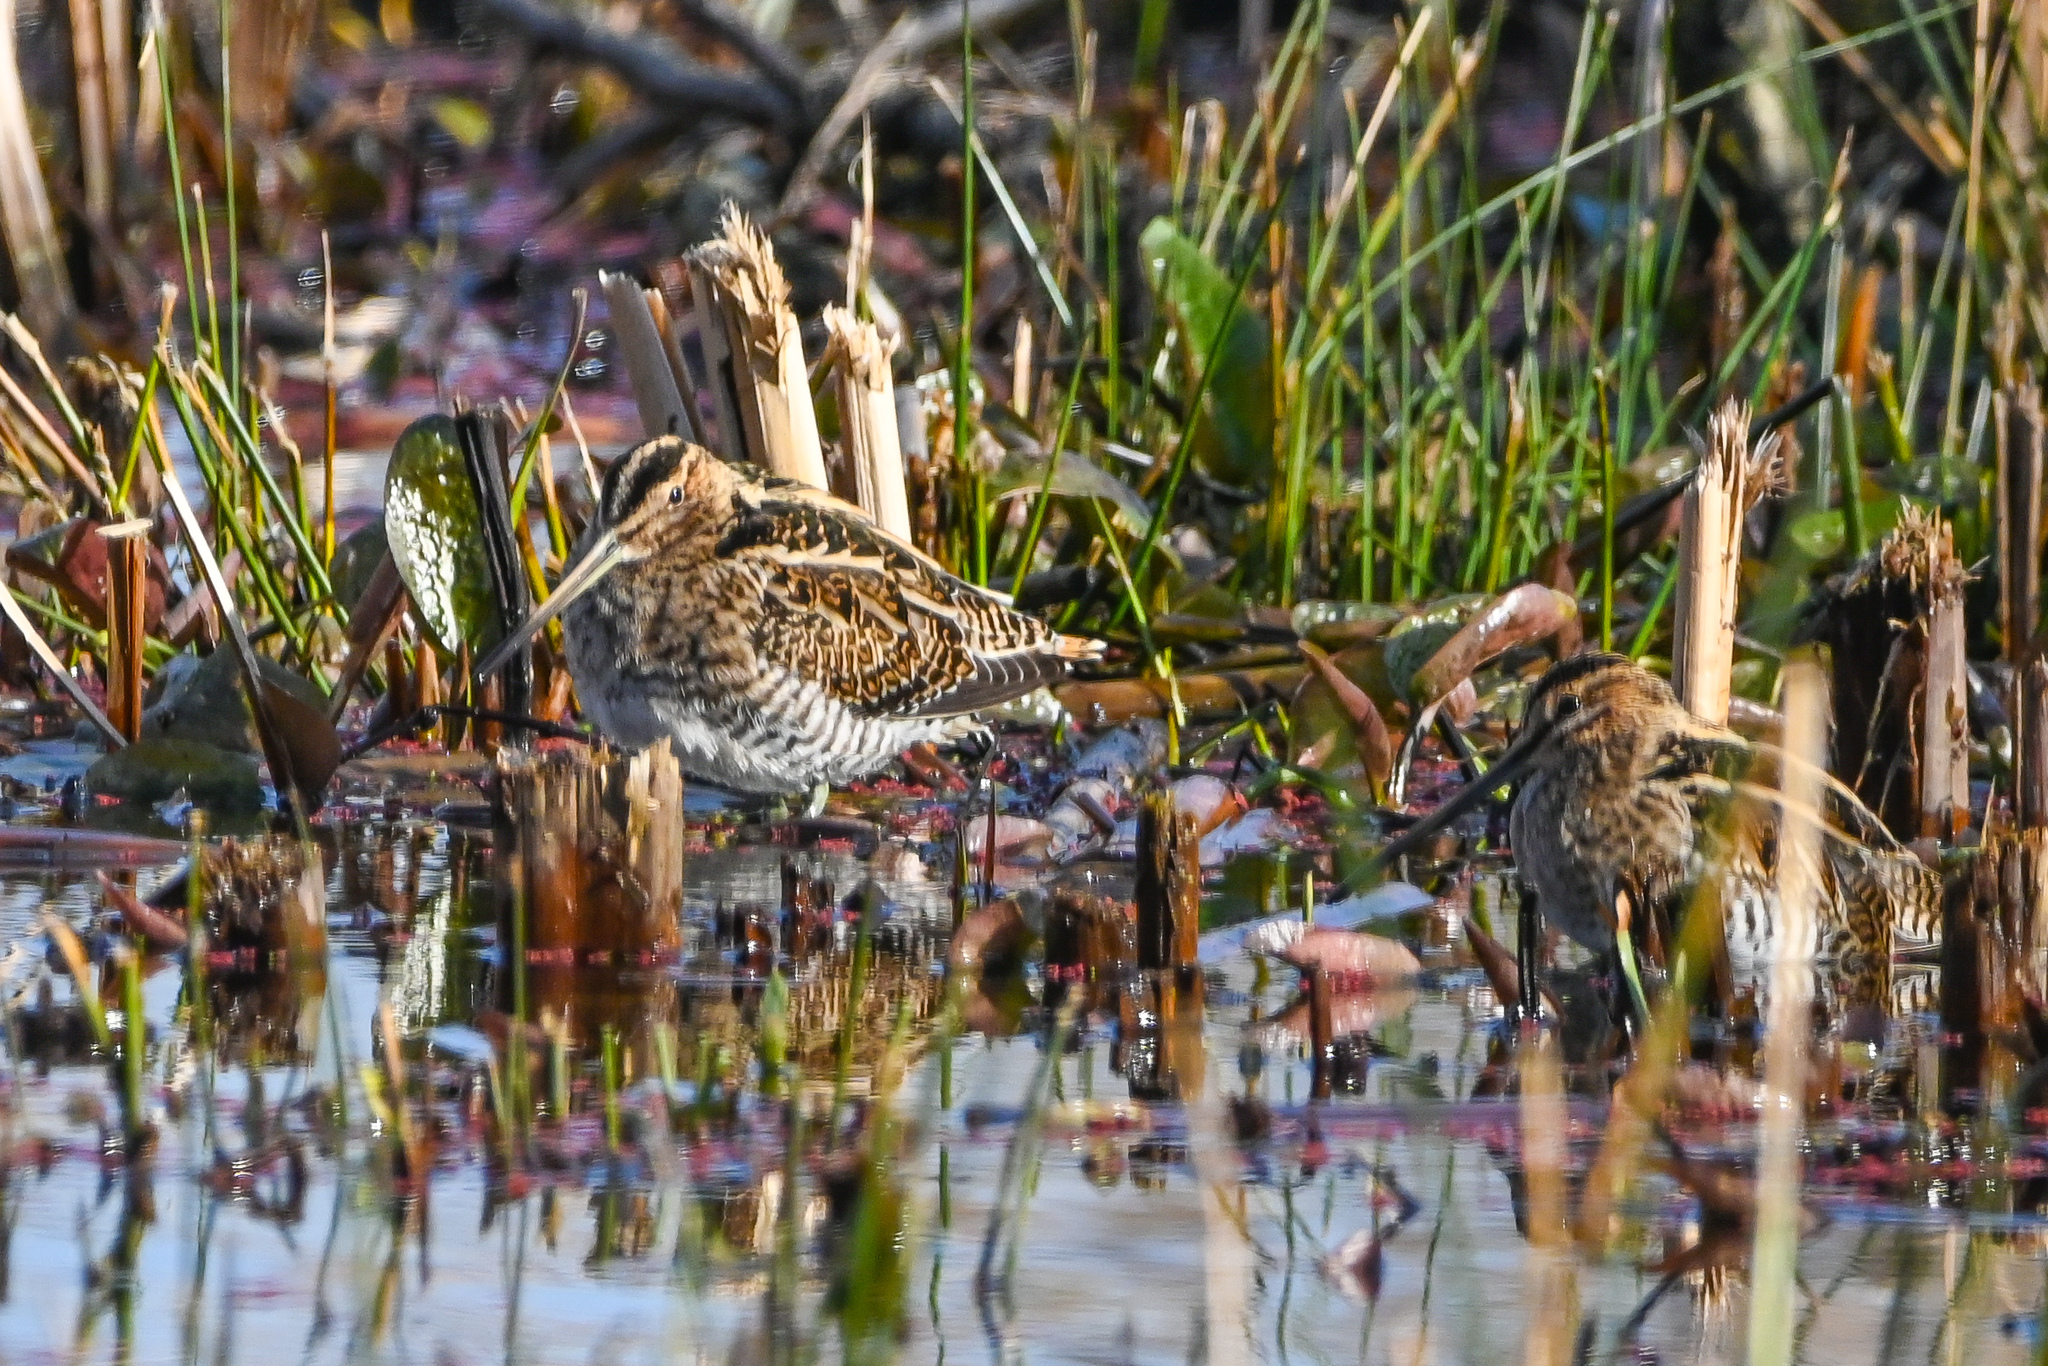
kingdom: Animalia
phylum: Chordata
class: Aves
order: Charadriiformes
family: Scolopacidae
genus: Gallinago
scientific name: Gallinago gallinago
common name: Common snipe
